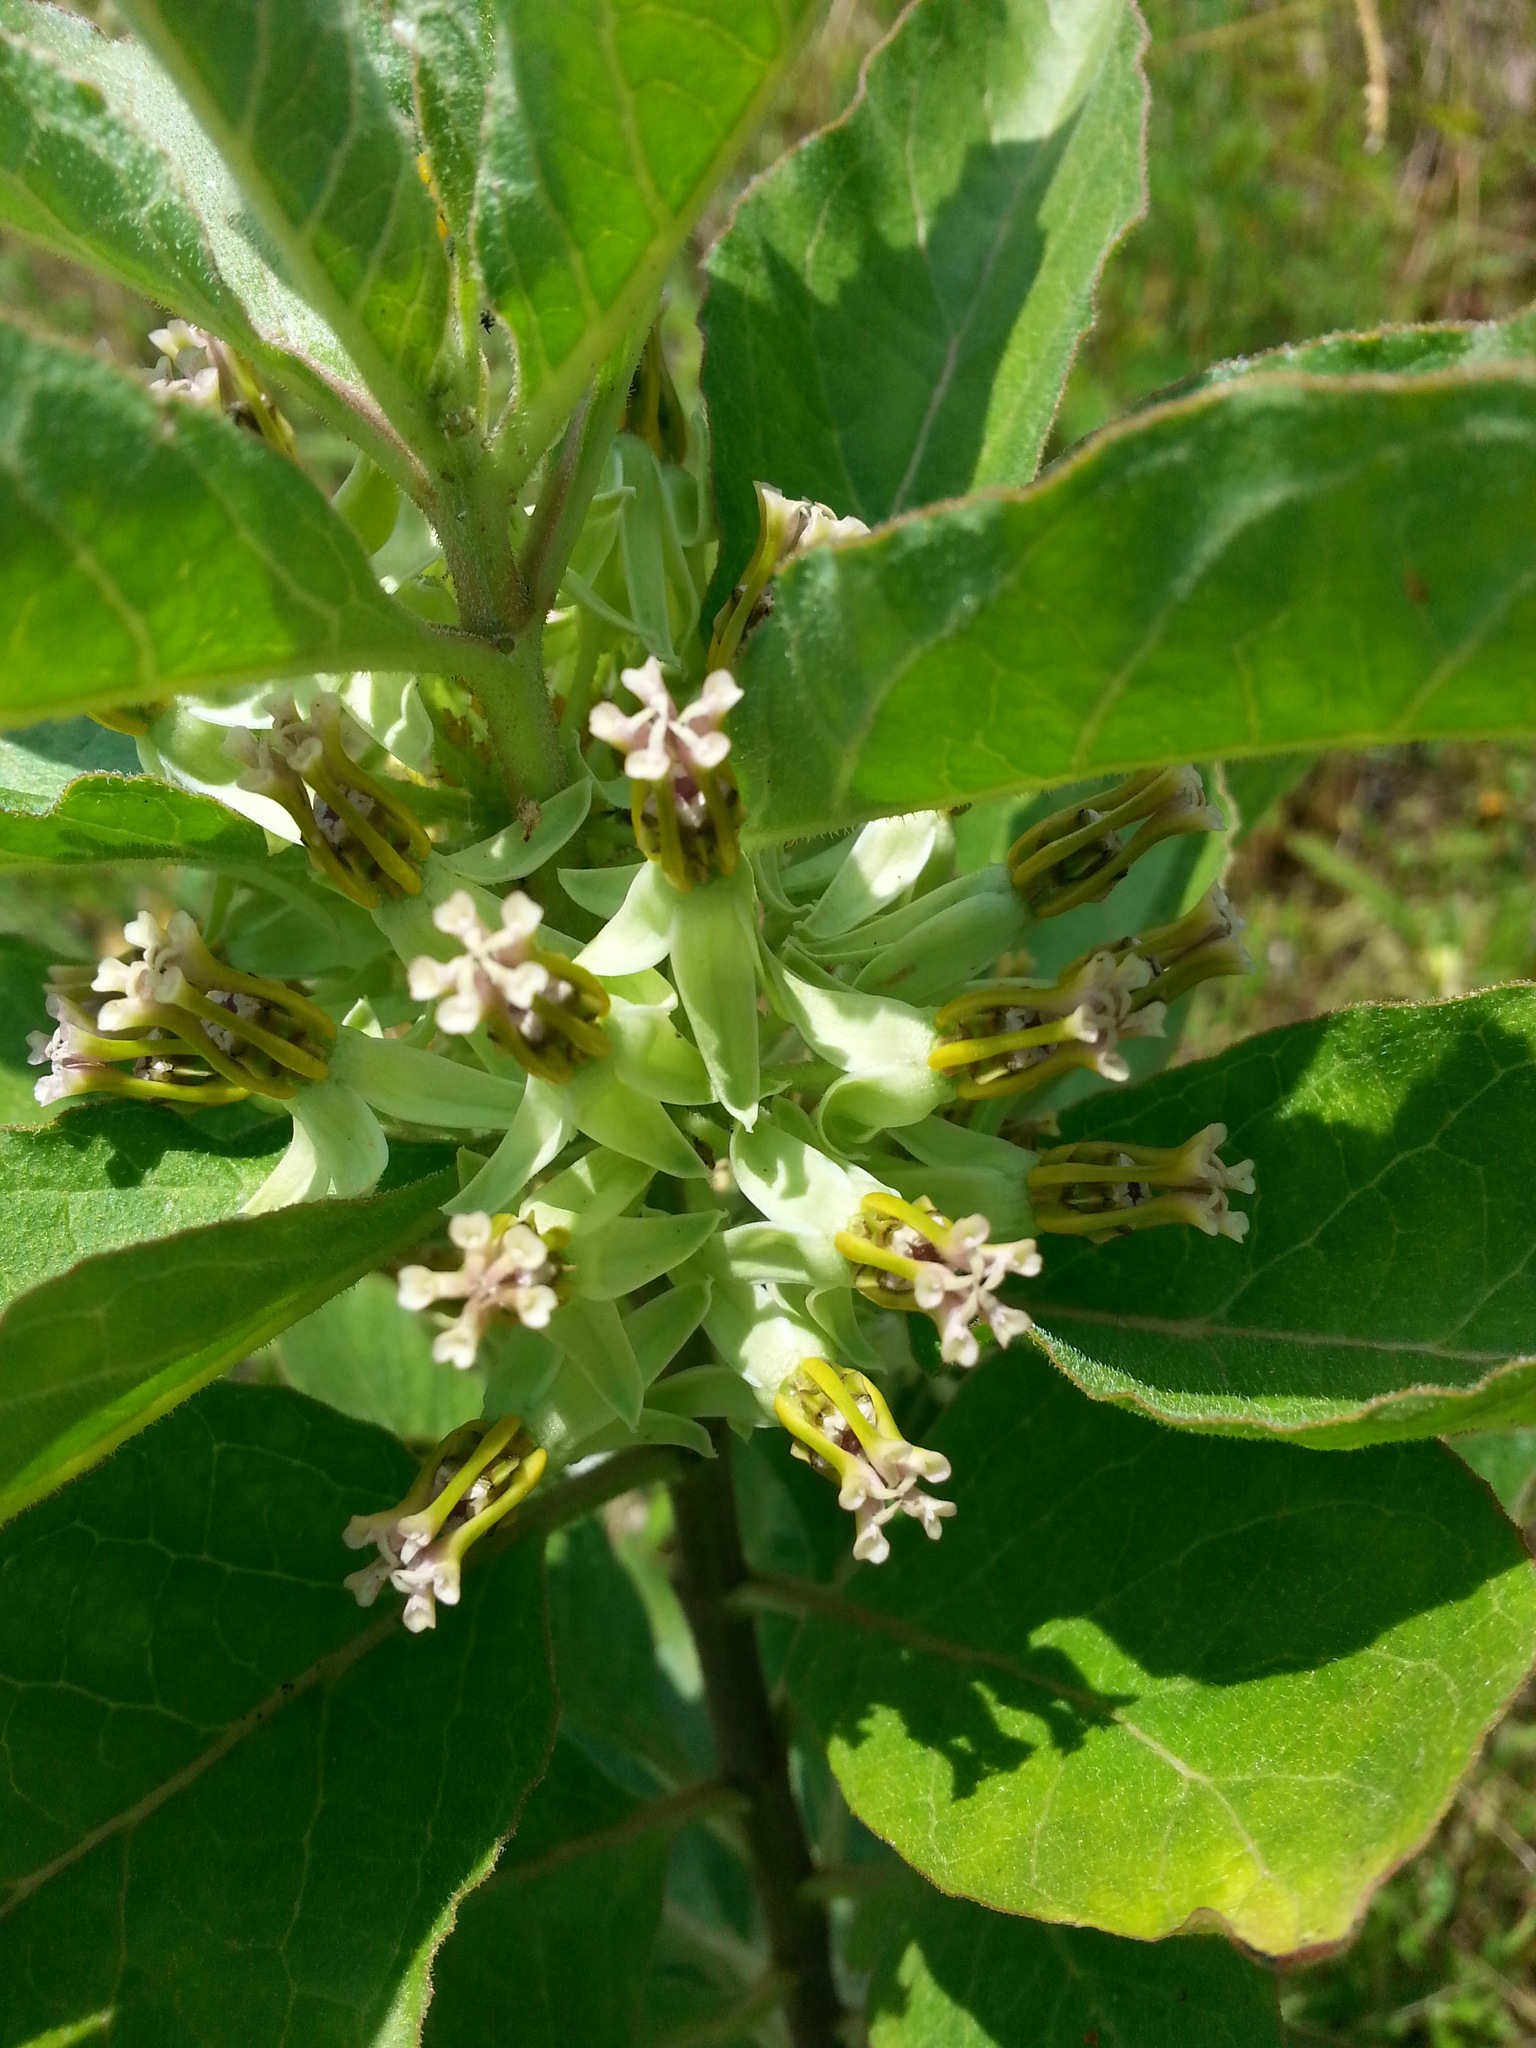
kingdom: Plantae
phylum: Tracheophyta
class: Magnoliopsida
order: Gentianales
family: Apocynaceae
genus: Asclepias
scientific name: Asclepias oenotheroides
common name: Zizotes milkweed
